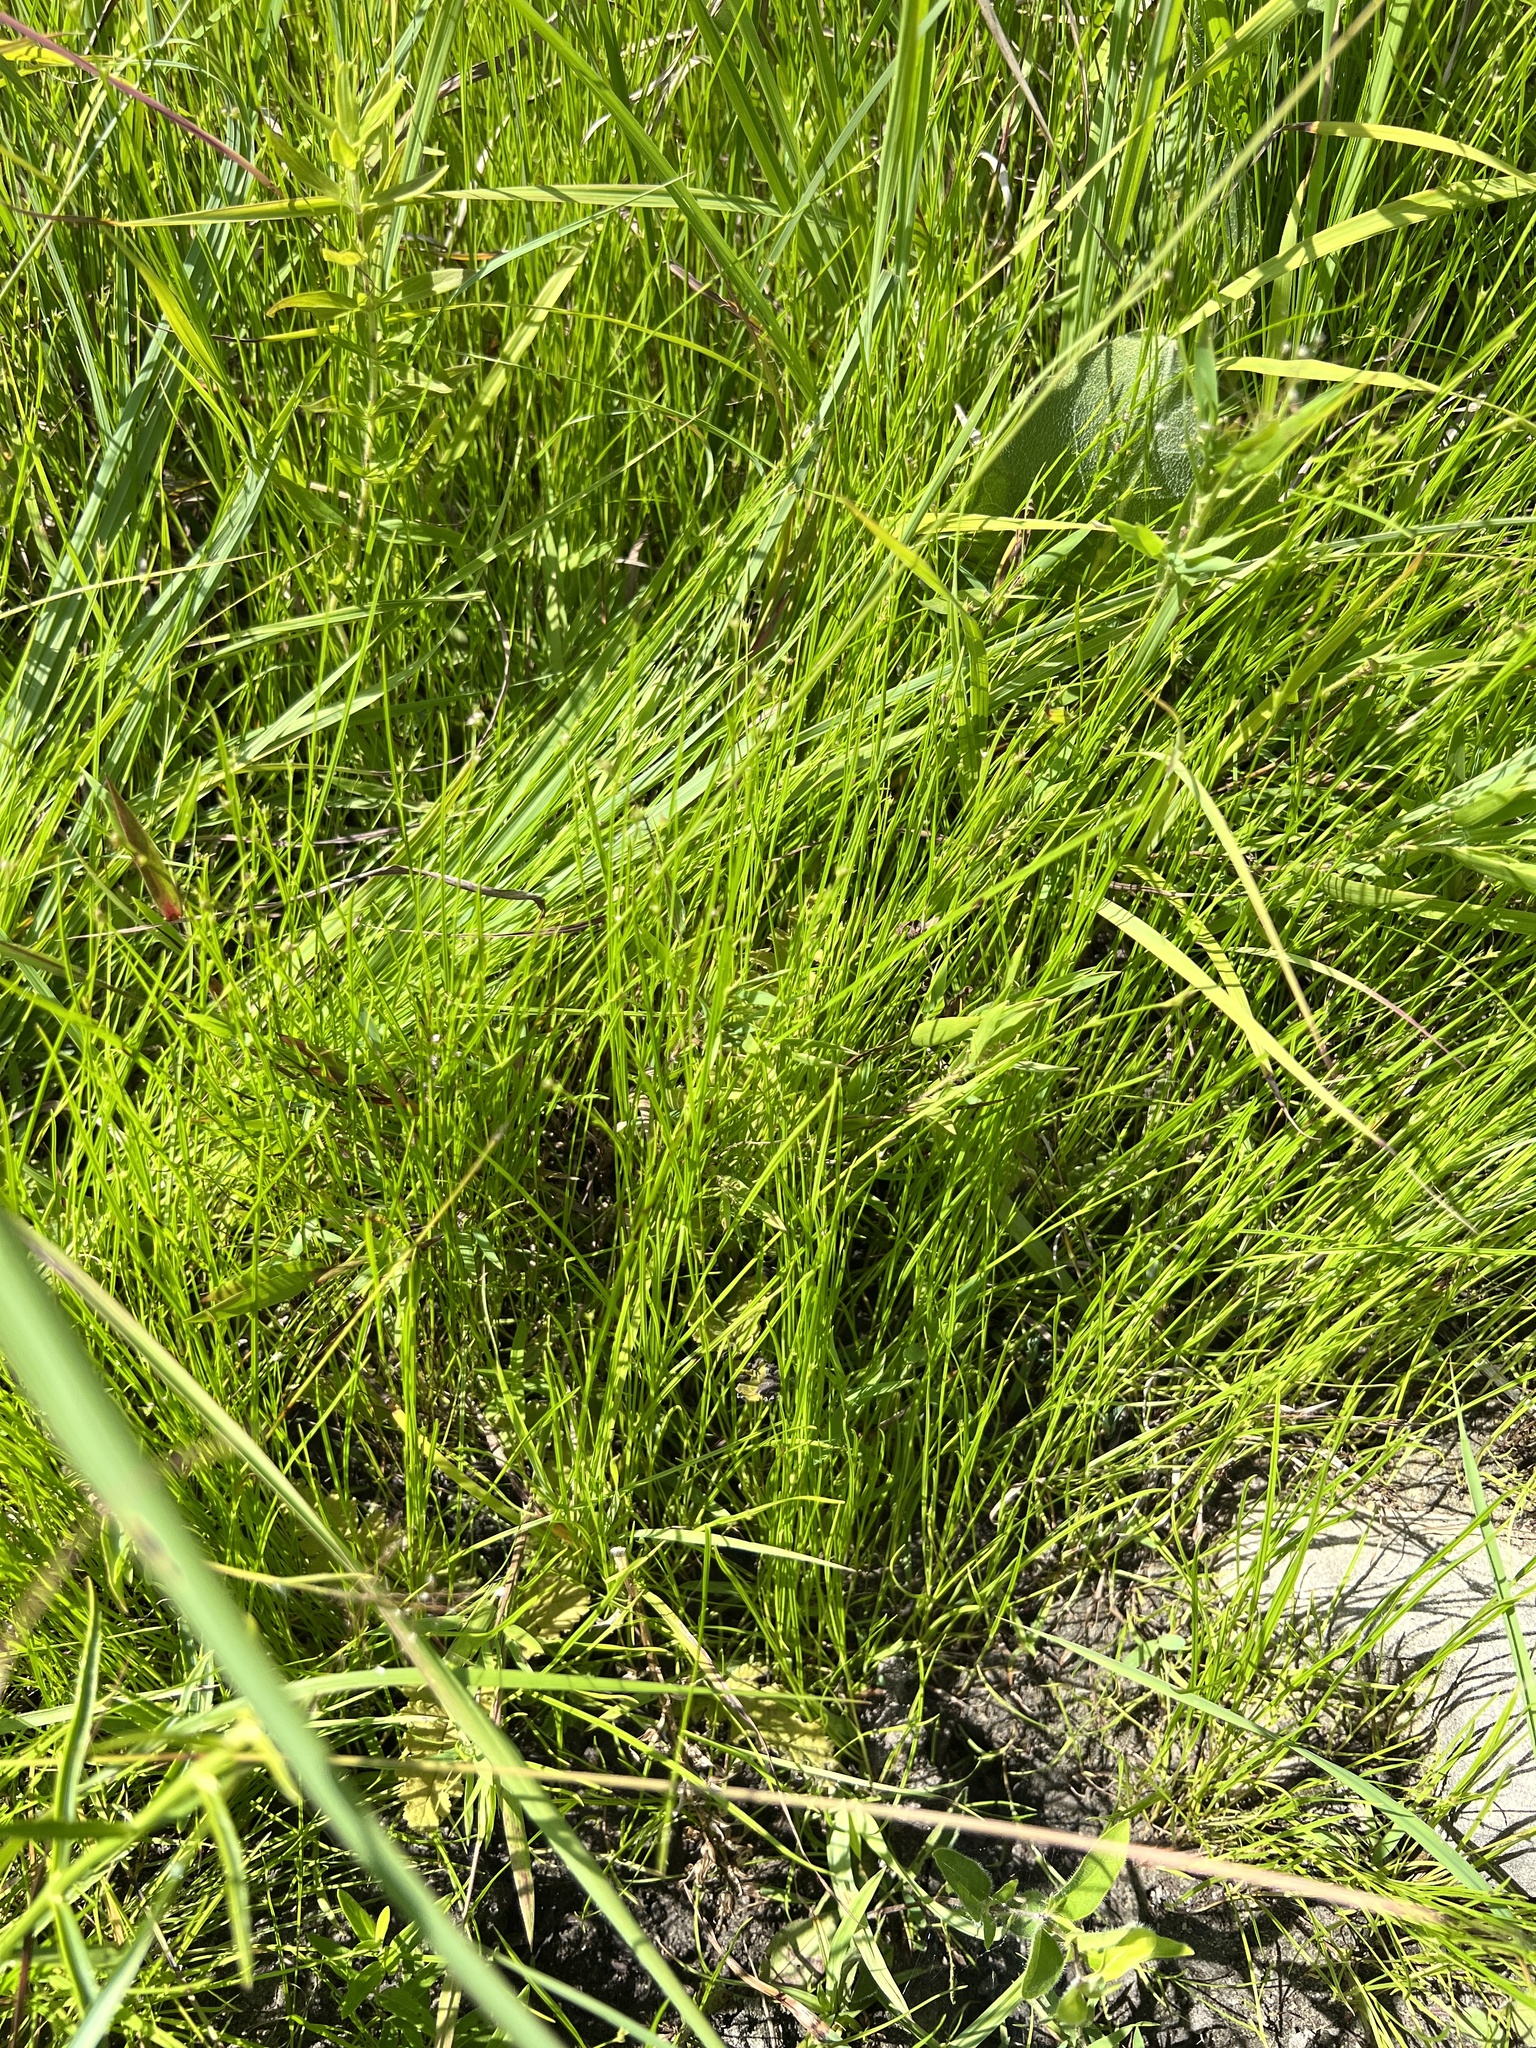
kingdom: Plantae
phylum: Tracheophyta
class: Liliopsida
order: Poales
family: Cyperaceae
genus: Scleria
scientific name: Scleria verticillata
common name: Low nutrush
